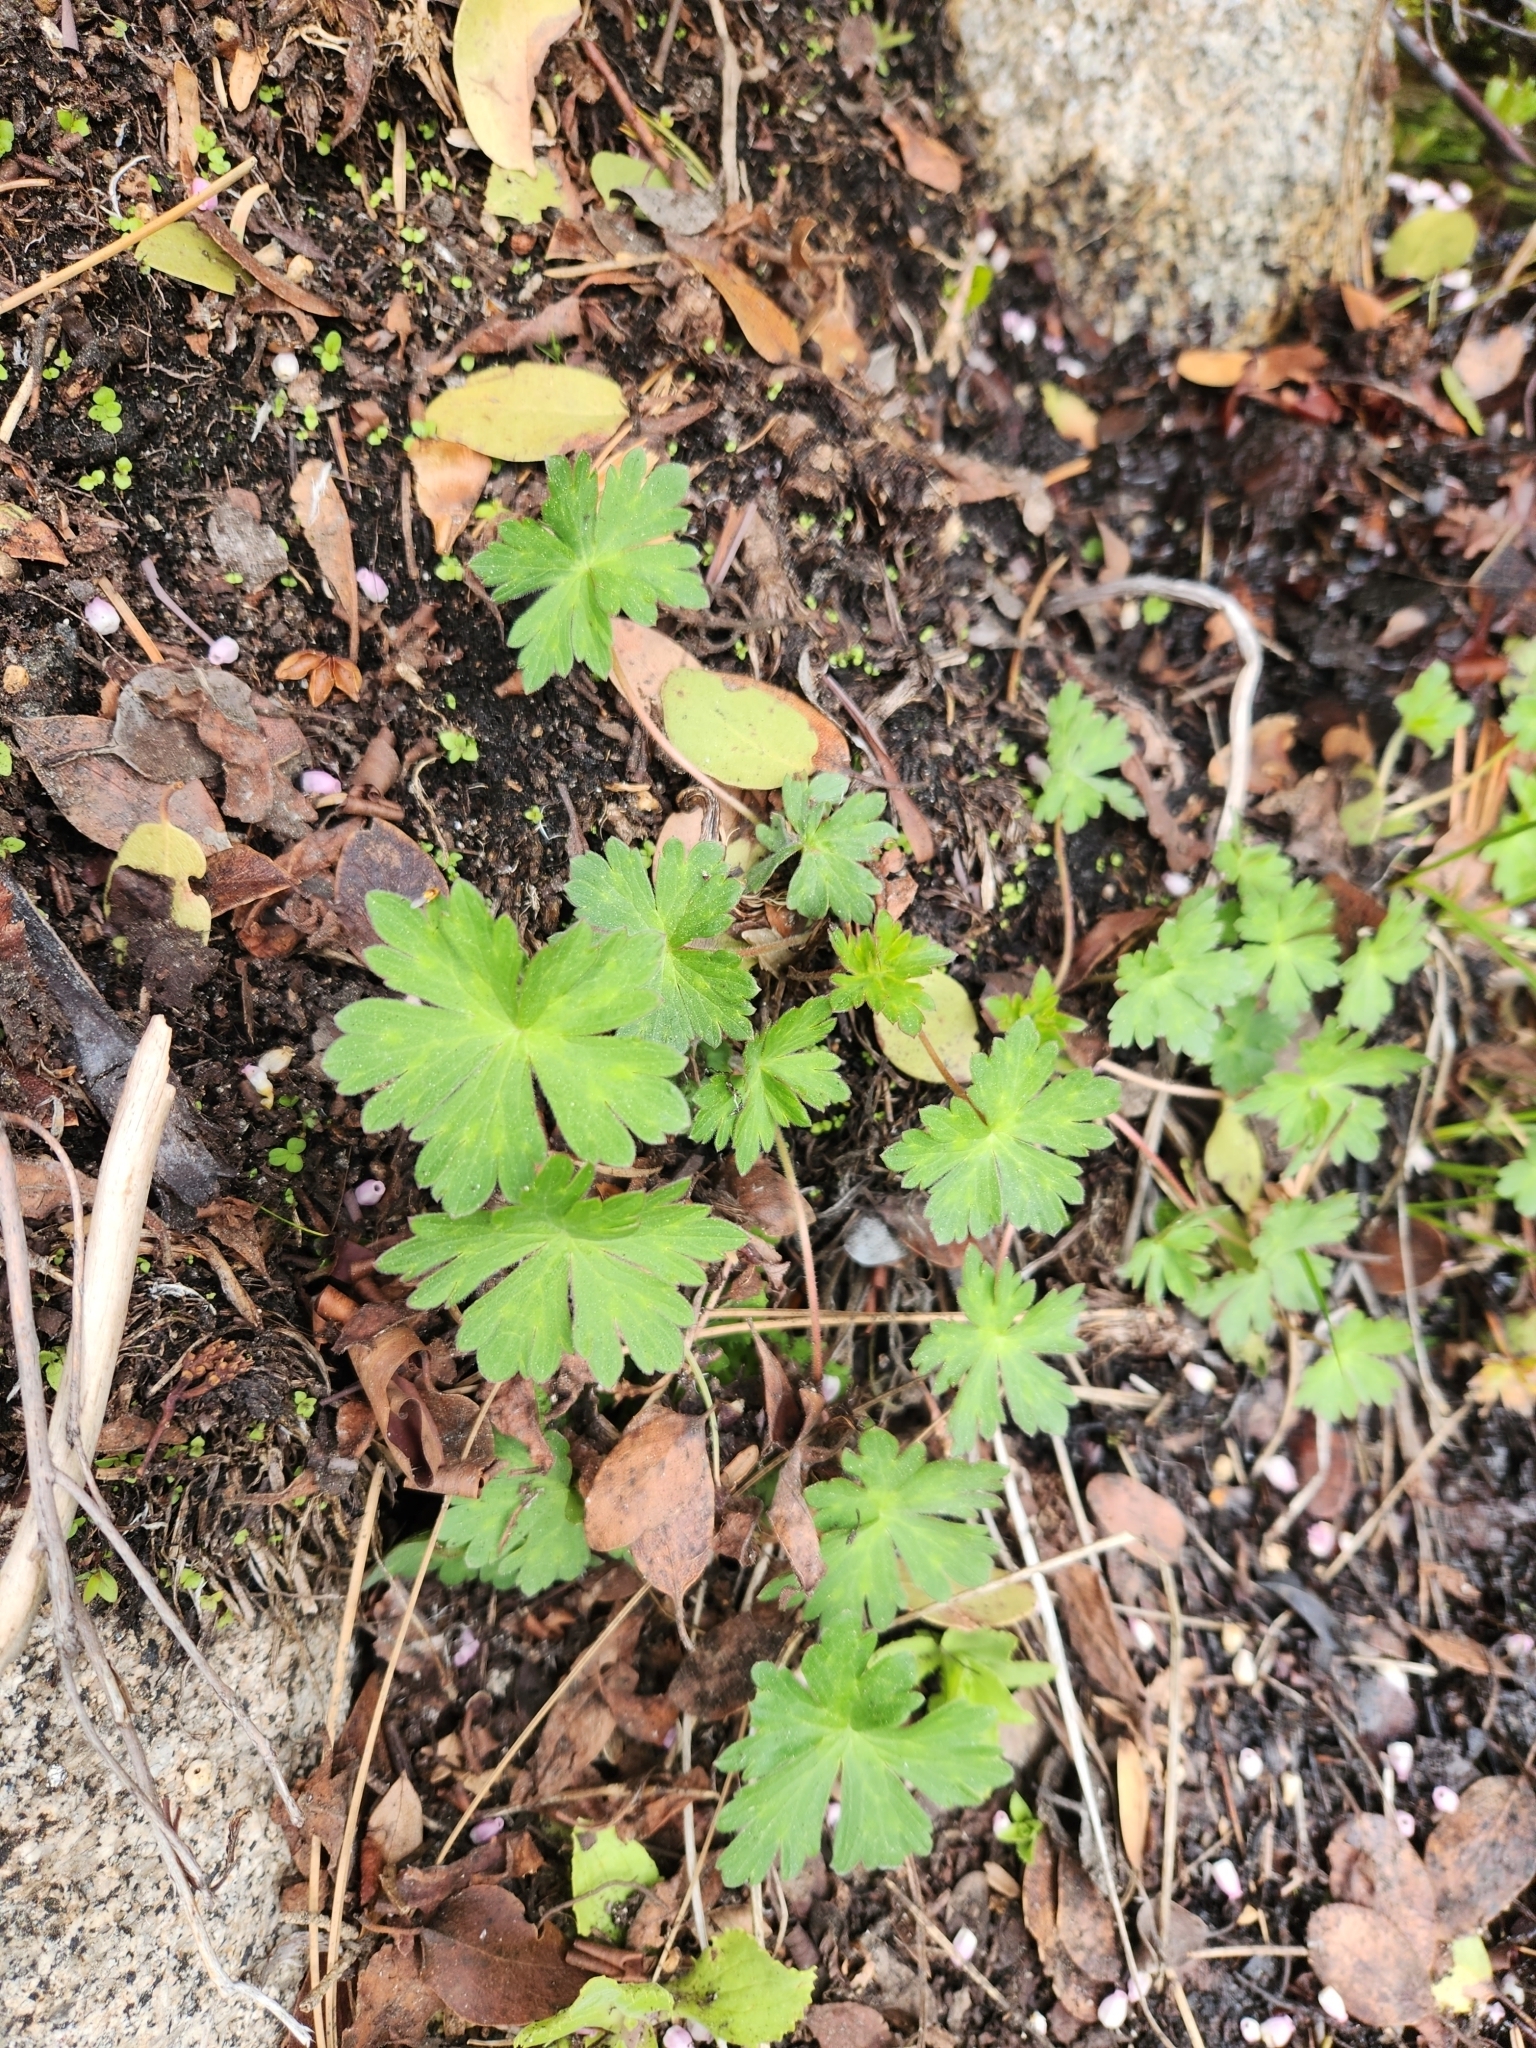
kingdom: Plantae
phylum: Tracheophyta
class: Magnoliopsida
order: Geraniales
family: Geraniaceae
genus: Geranium
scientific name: Geranium californicum
